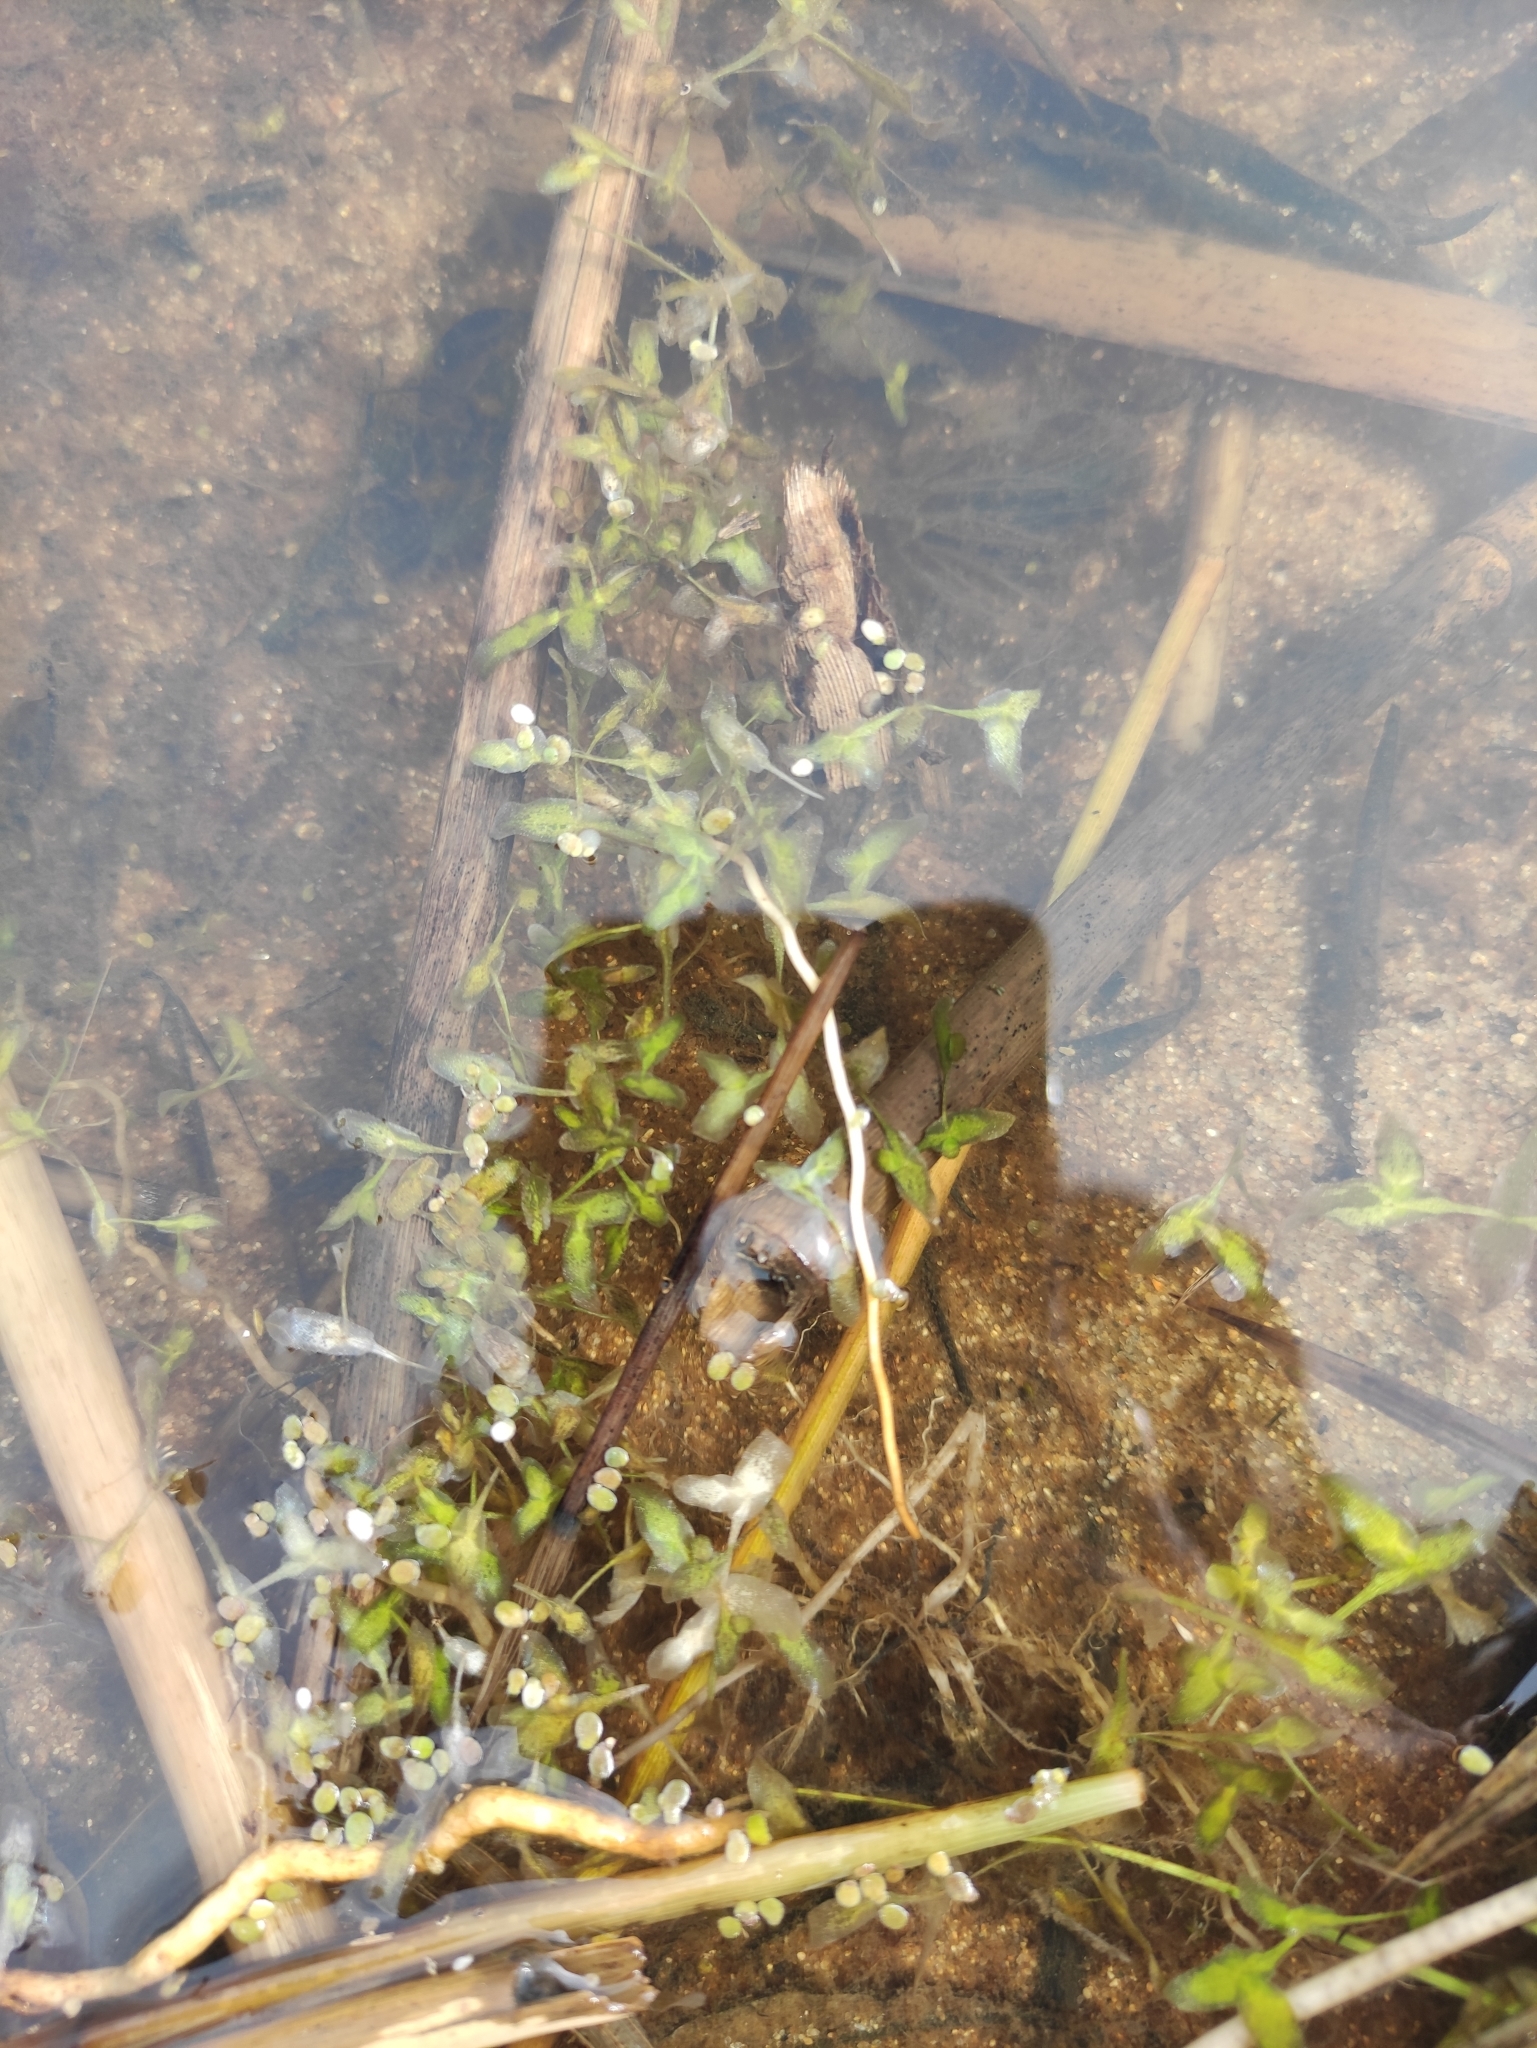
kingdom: Plantae
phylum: Tracheophyta
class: Liliopsida
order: Alismatales
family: Araceae
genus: Lemna
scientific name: Lemna trisulca
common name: Ivy-leaved duckweed
